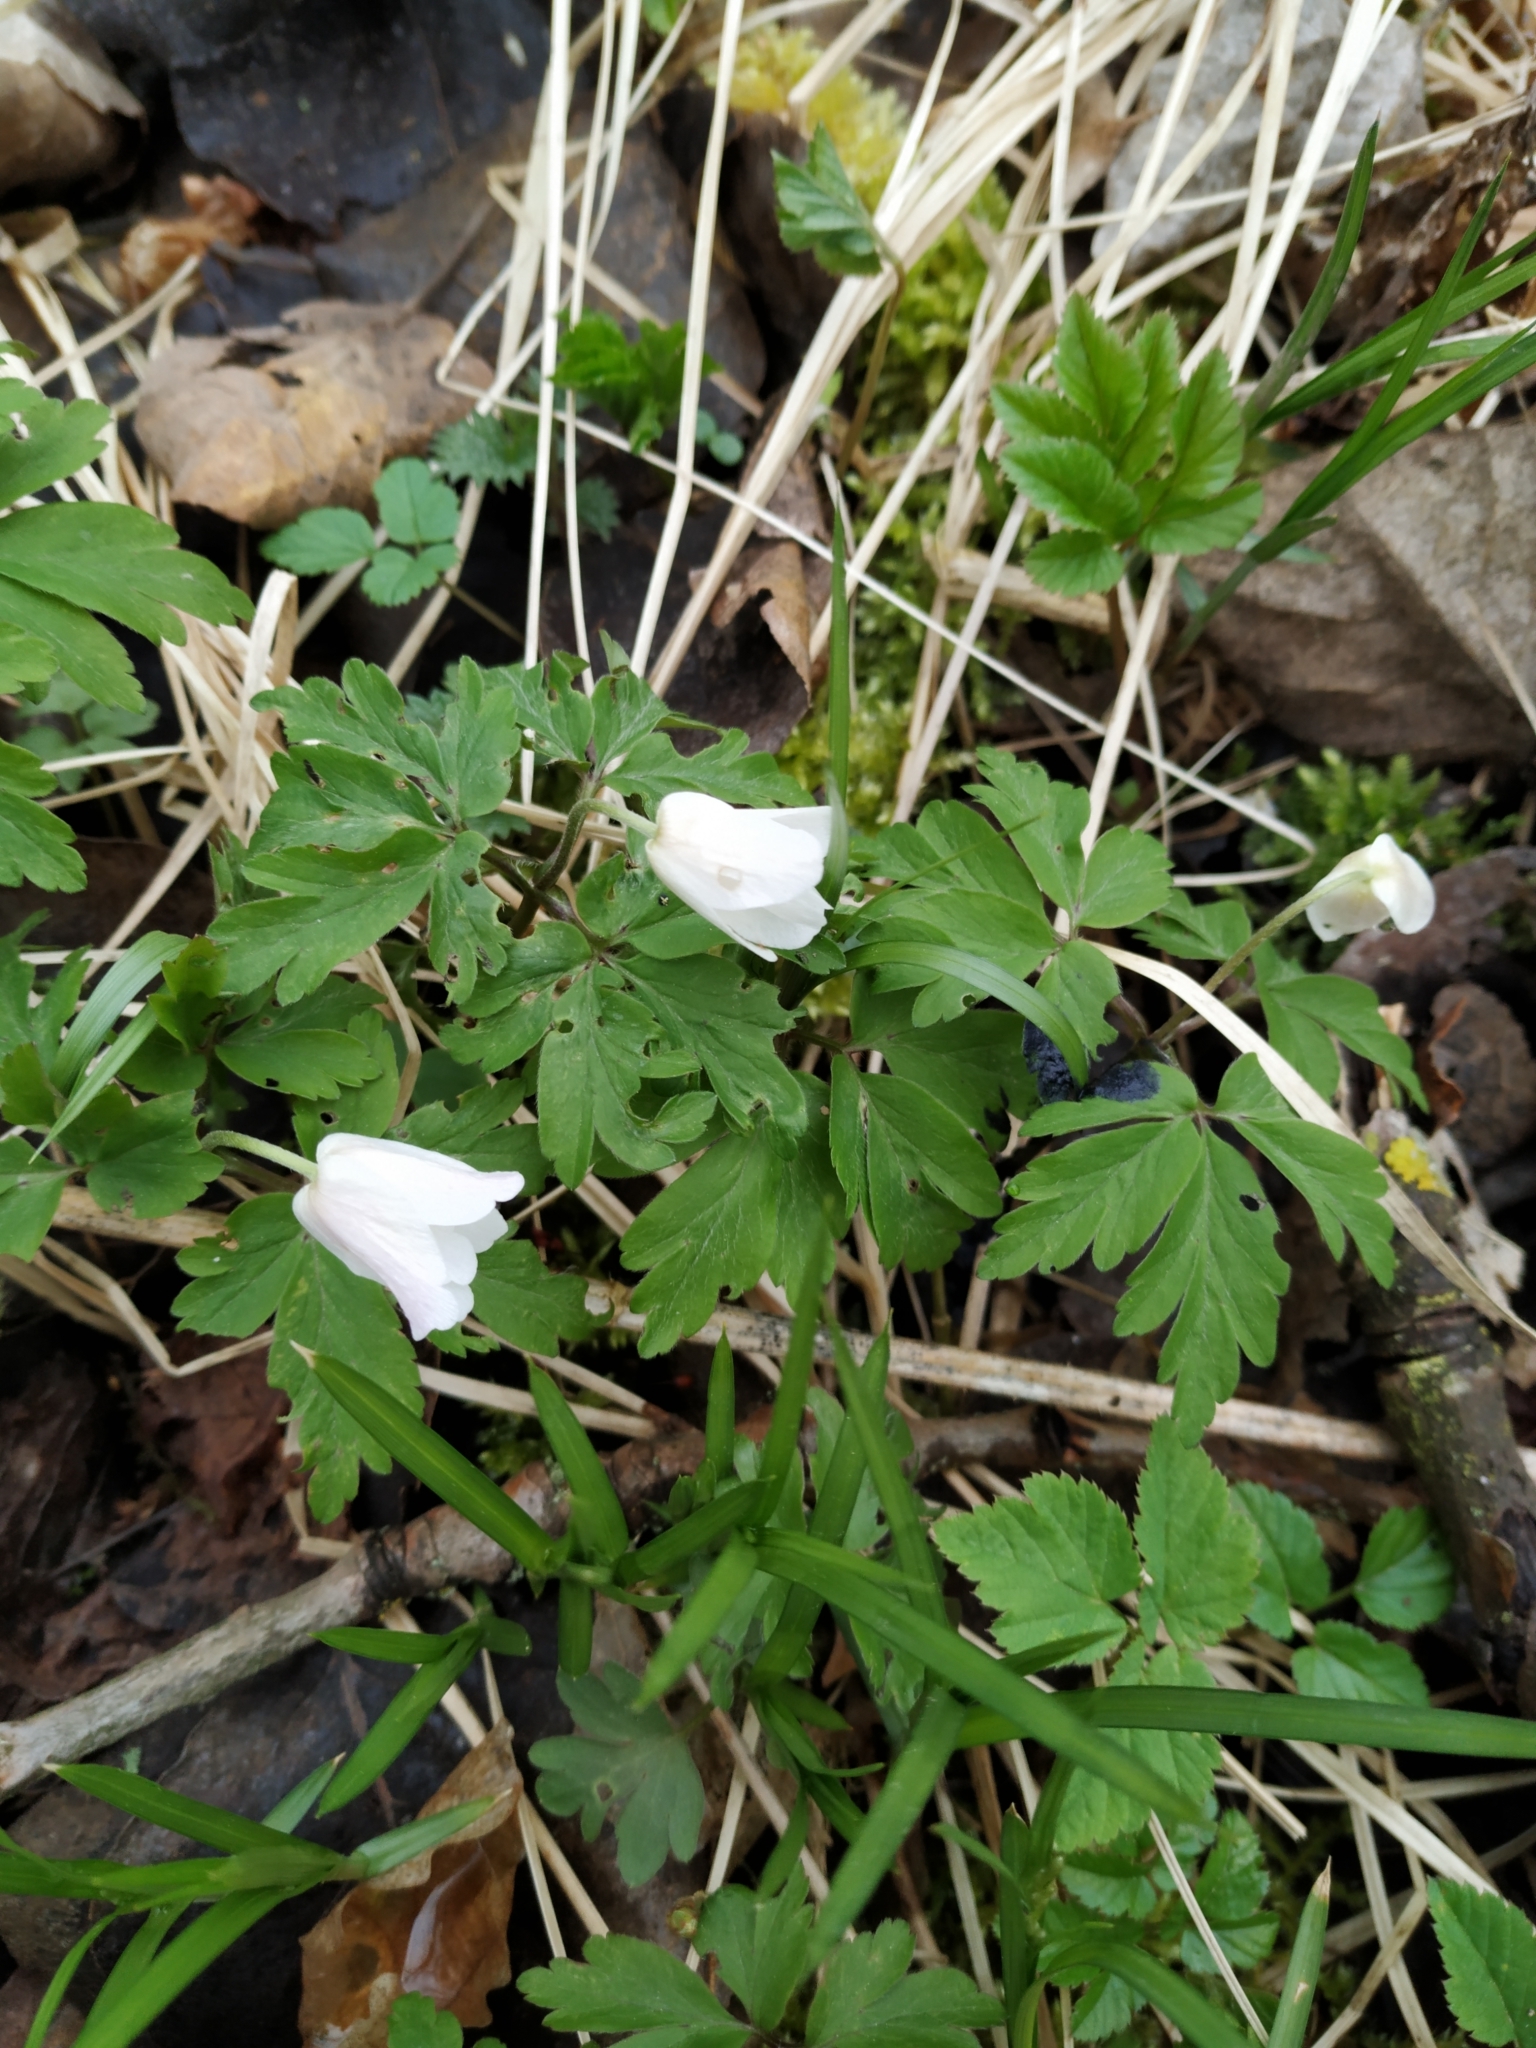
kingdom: Plantae
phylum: Tracheophyta
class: Magnoliopsida
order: Ranunculales
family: Ranunculaceae
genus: Anemone
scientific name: Anemone nemorosa
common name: Wood anemone
